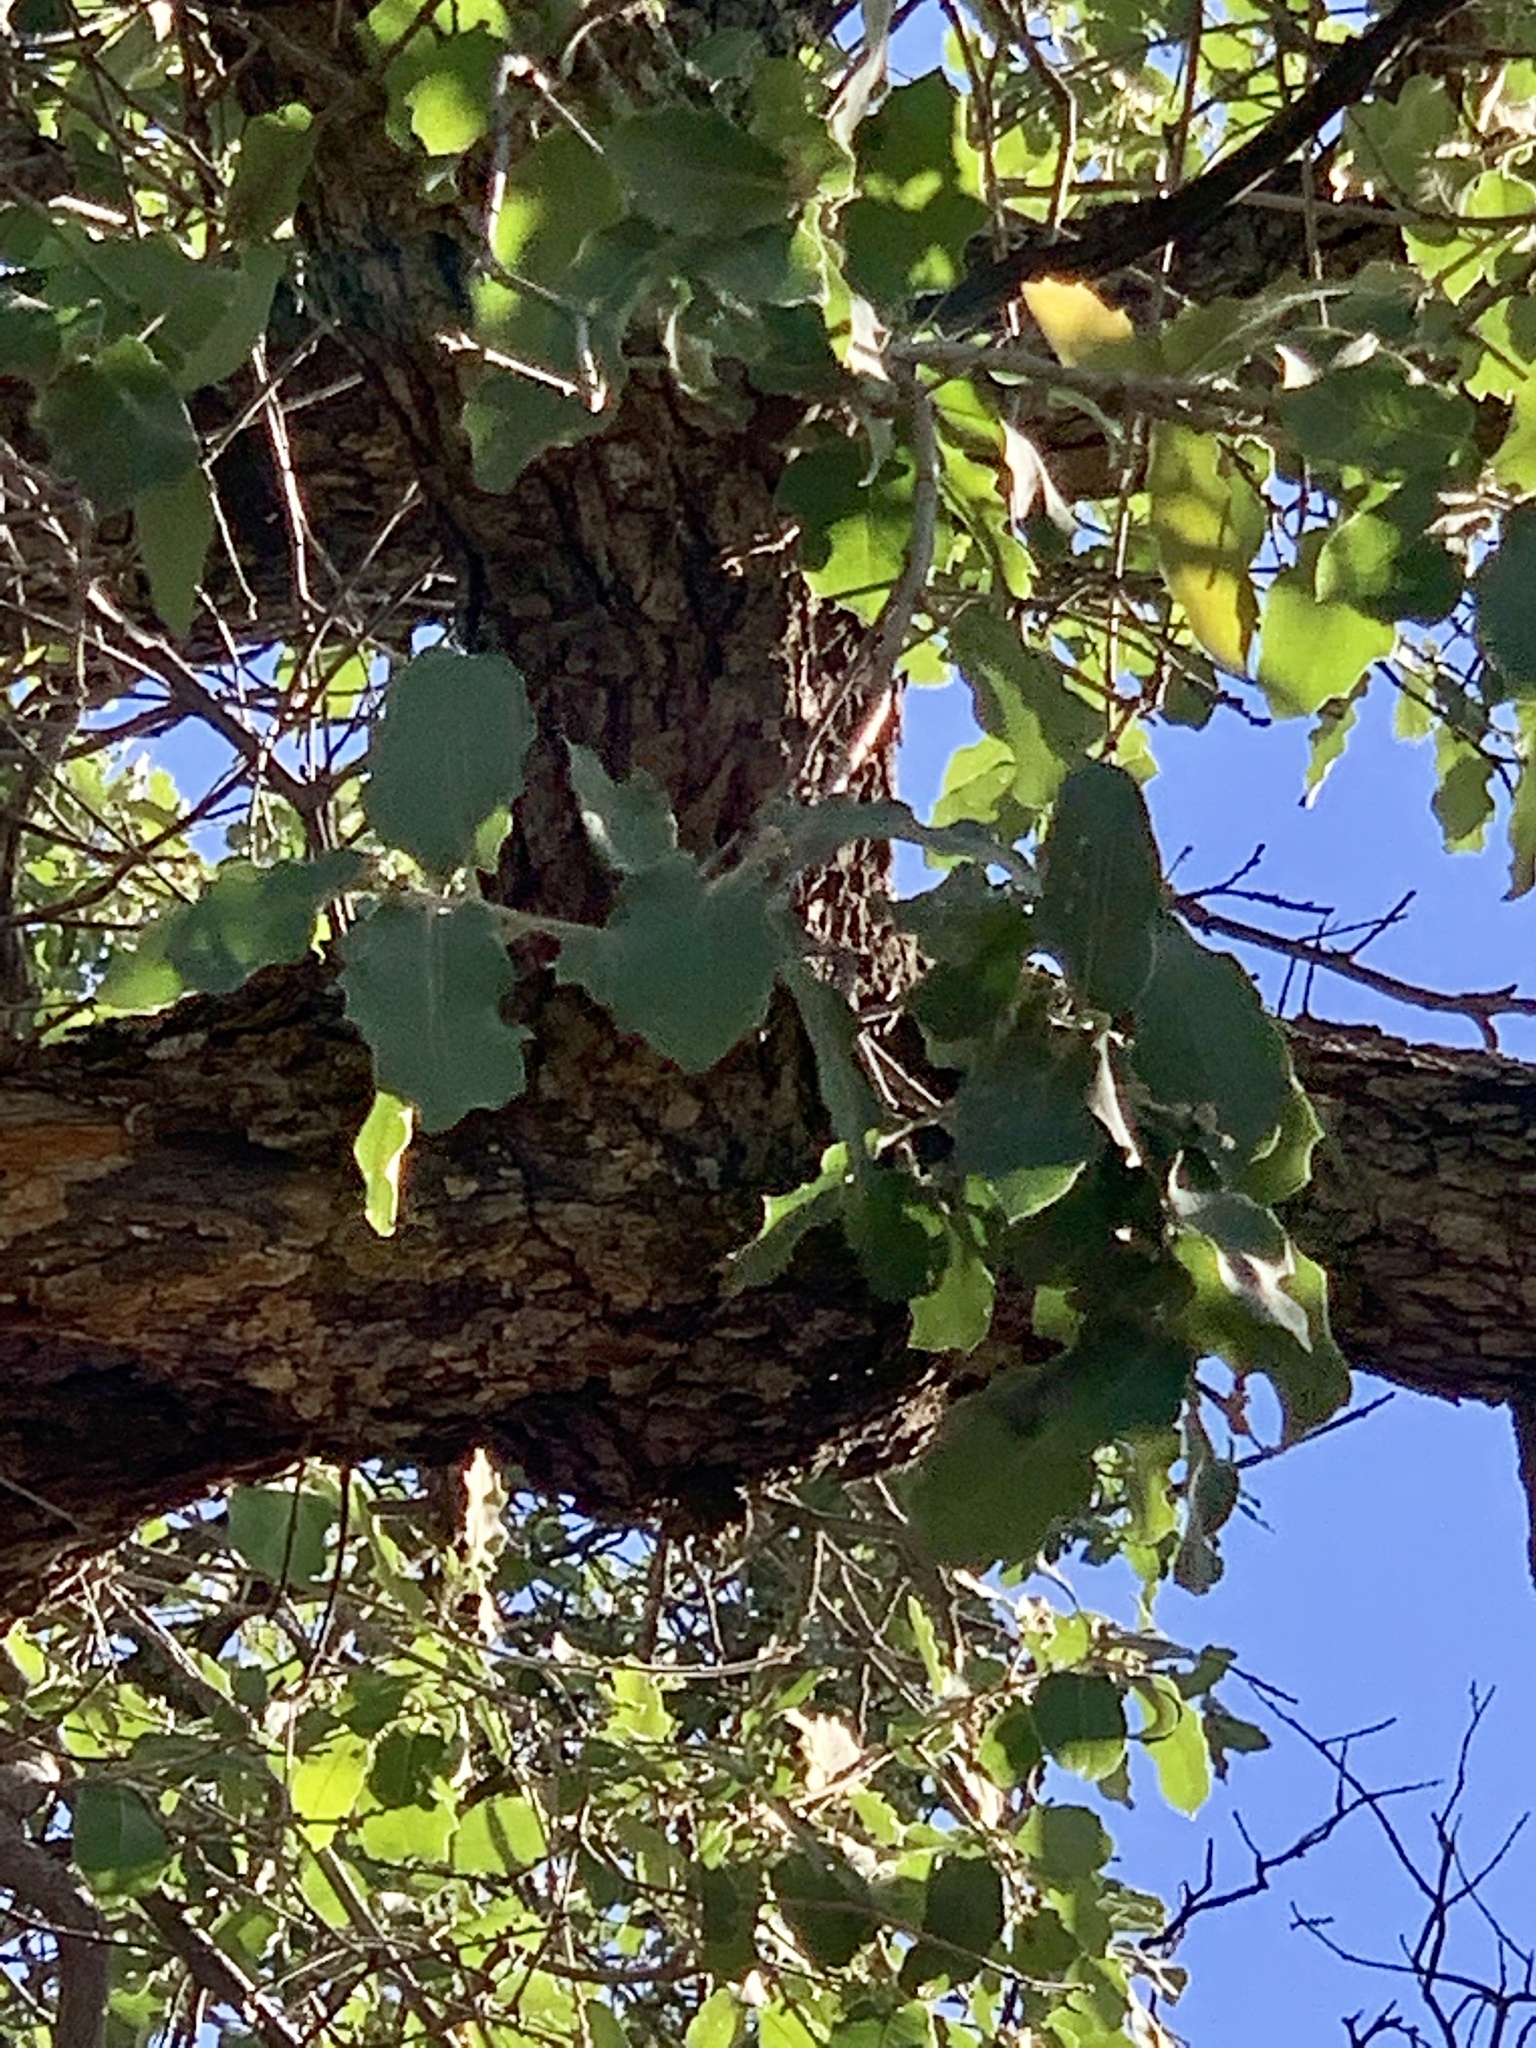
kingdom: Plantae
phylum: Tracheophyta
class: Magnoliopsida
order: Fagales
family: Fagaceae
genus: Quercus
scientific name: Quercus arizonica
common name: Arizona white oak
